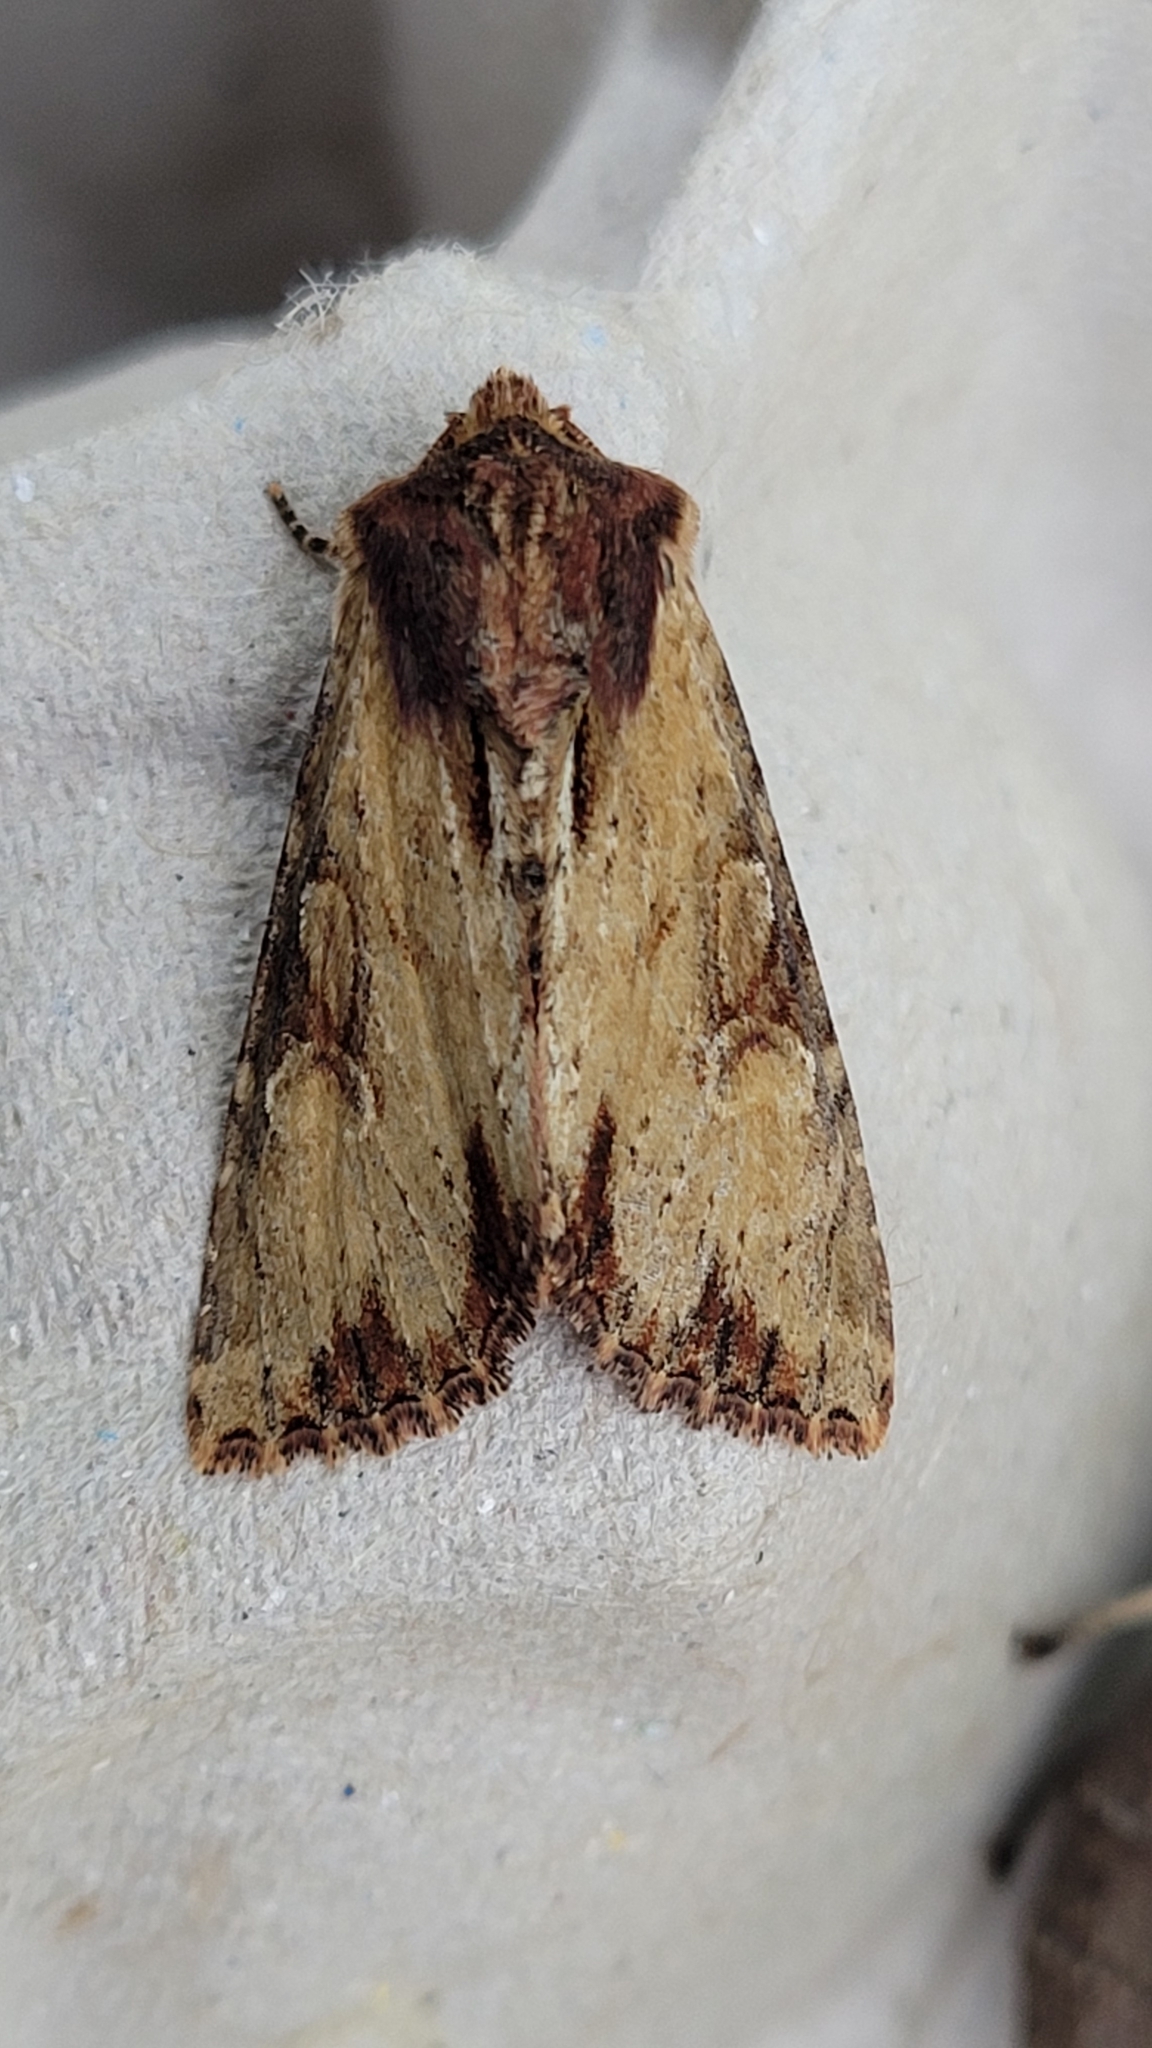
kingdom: Animalia
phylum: Arthropoda
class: Insecta
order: Lepidoptera
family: Noctuidae
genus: Apamea
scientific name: Apamea crenata
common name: Clouded-bordered brindle
